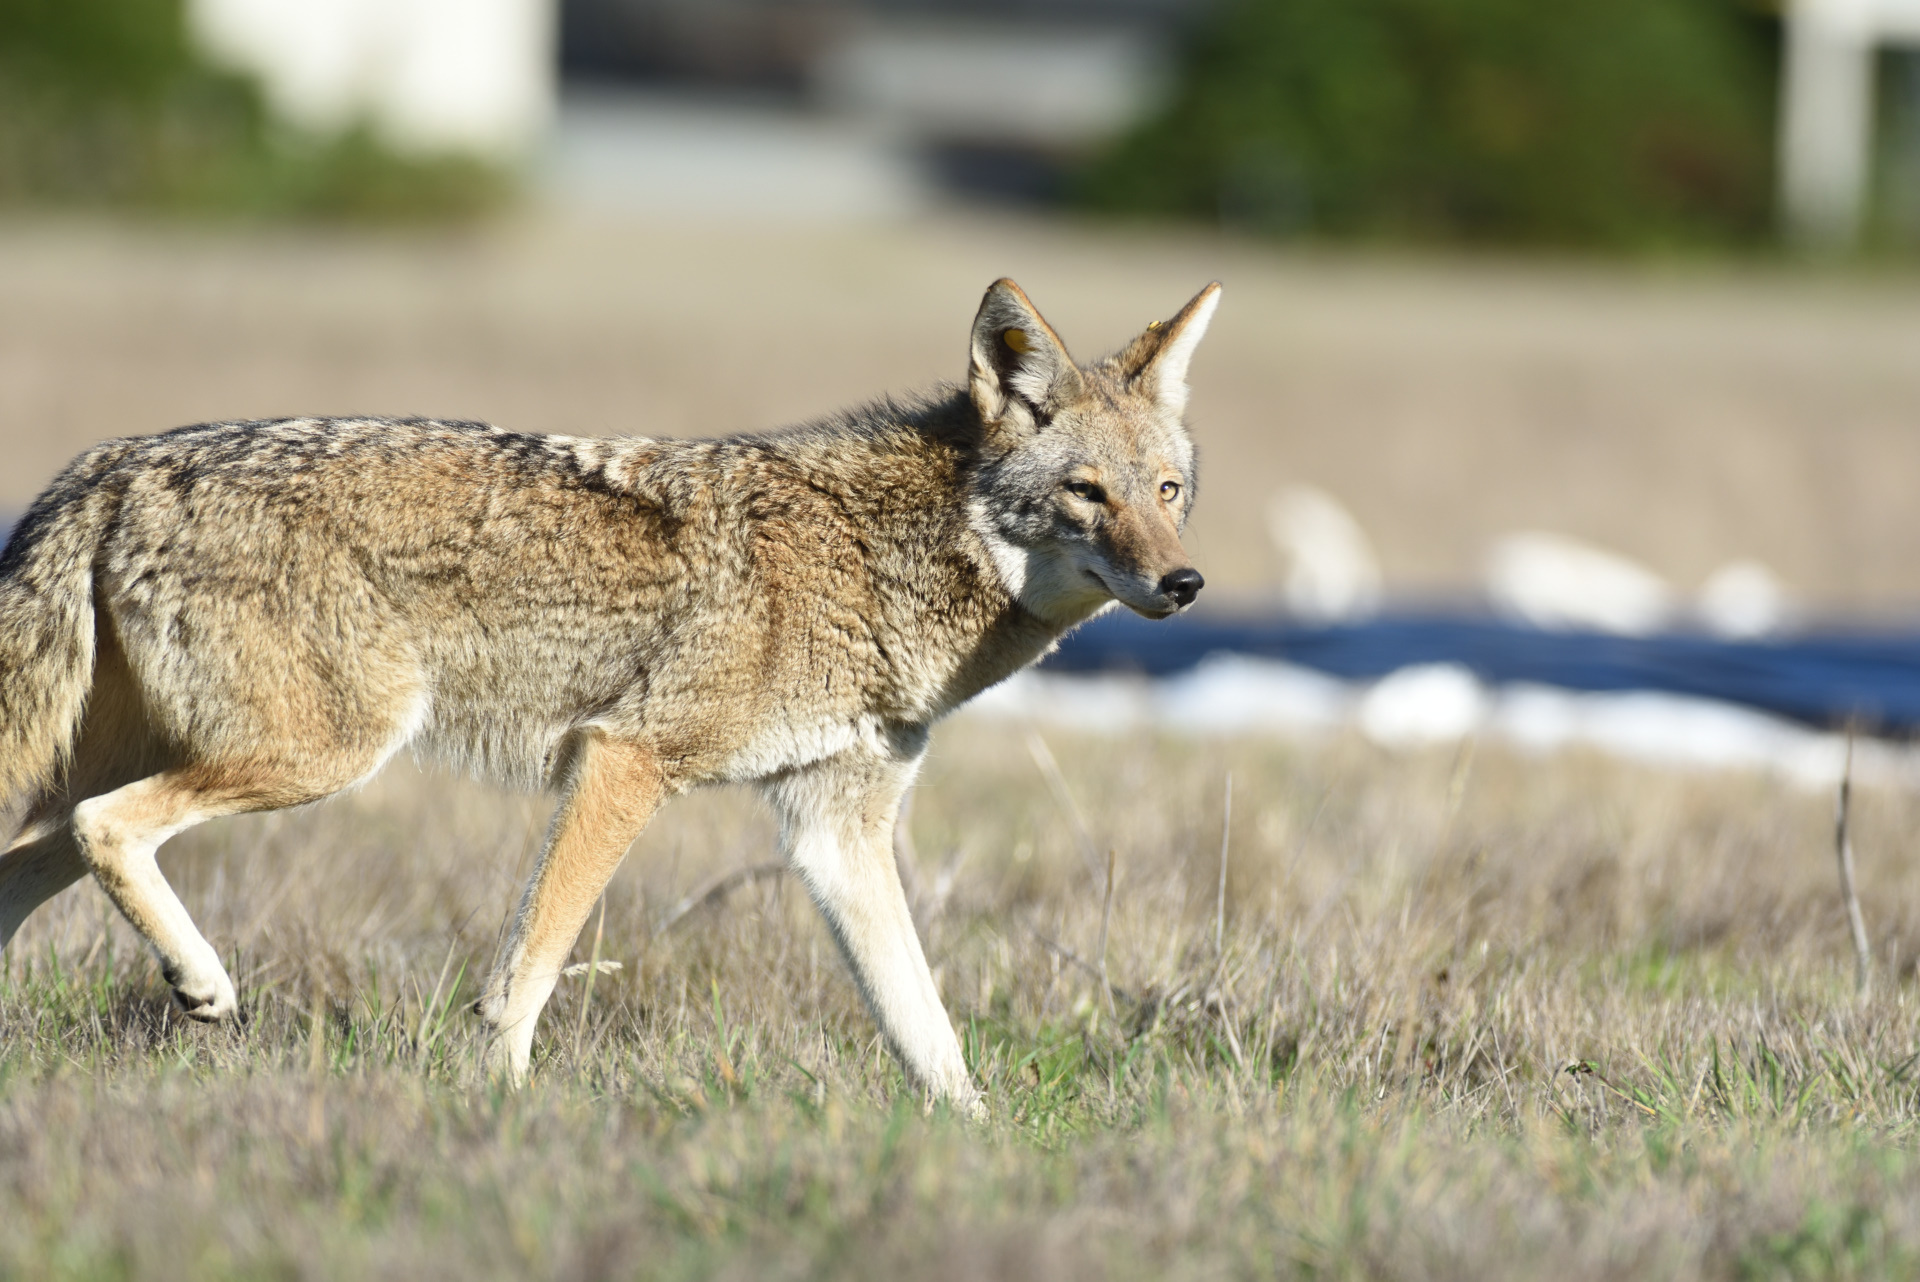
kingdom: Animalia
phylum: Chordata
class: Mammalia
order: Carnivora
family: Canidae
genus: Canis
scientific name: Canis latrans
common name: Coyote
